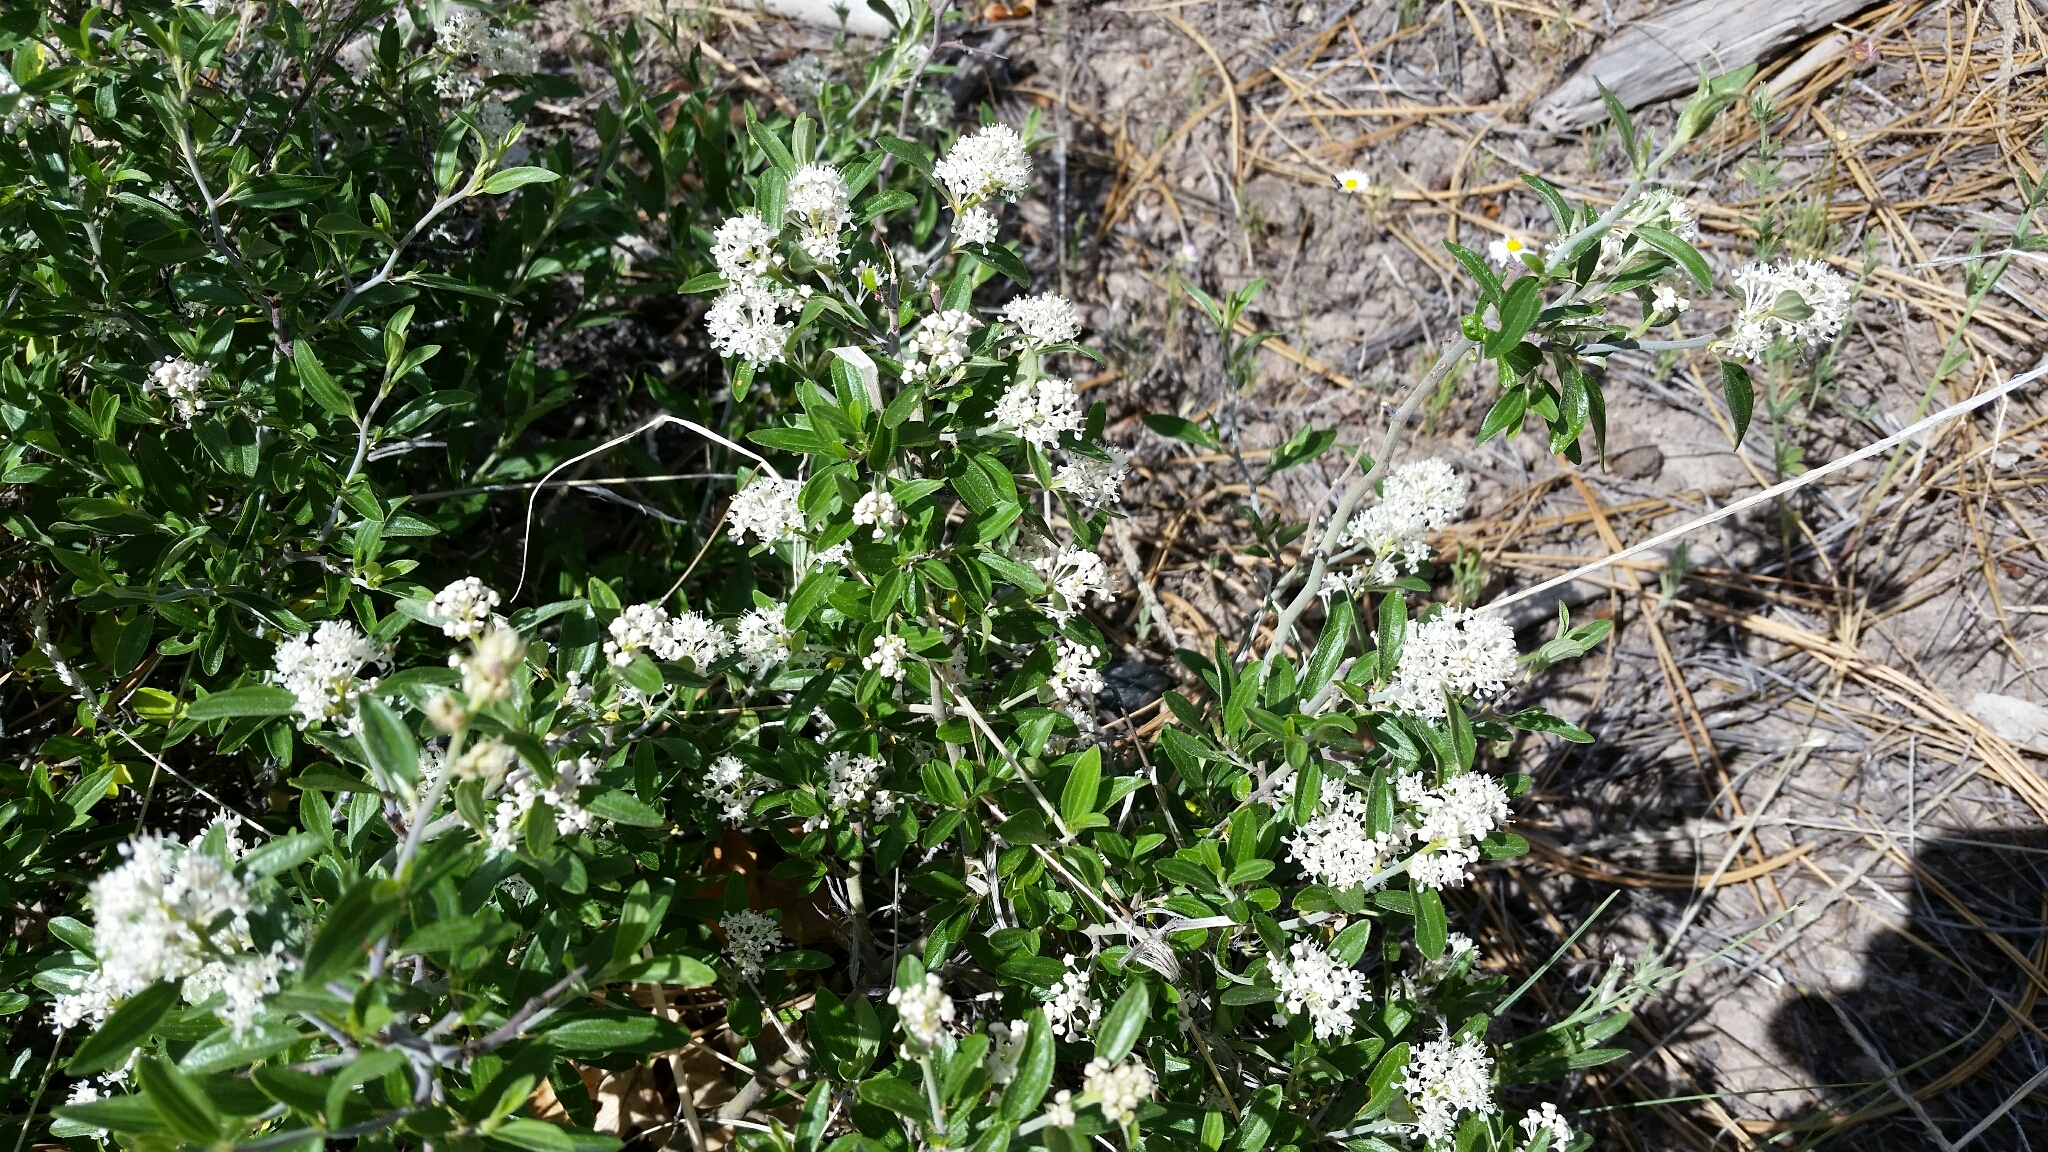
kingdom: Plantae
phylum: Tracheophyta
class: Magnoliopsida
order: Rosales
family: Rhamnaceae
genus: Ceanothus
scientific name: Ceanothus fendleri
